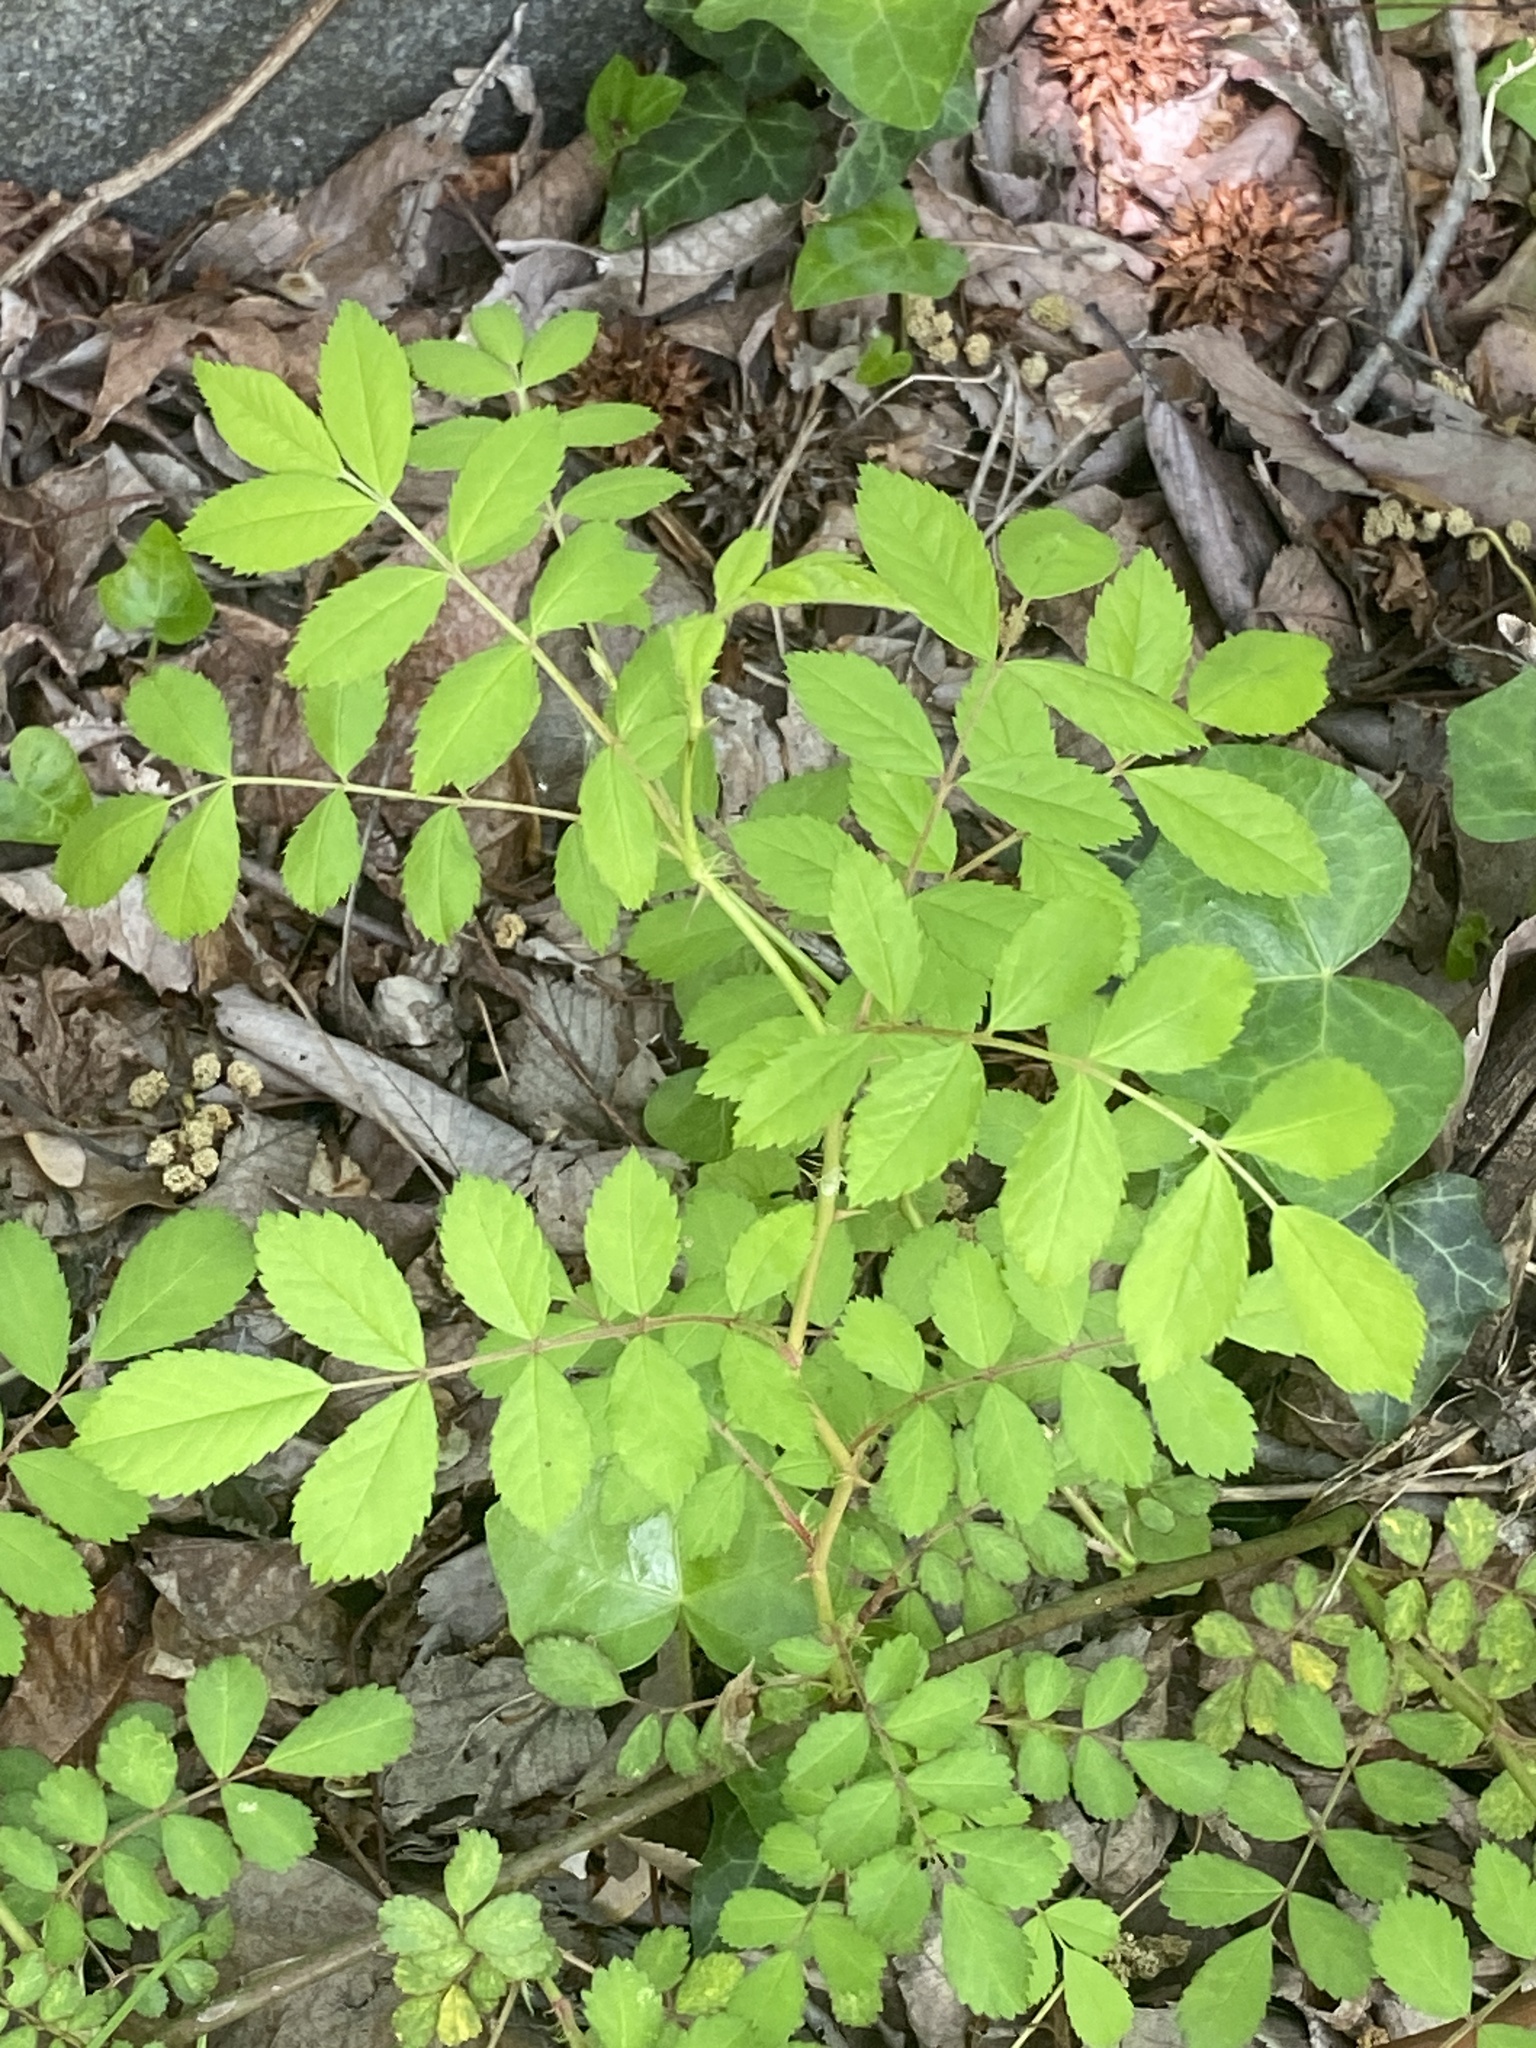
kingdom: Plantae
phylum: Tracheophyta
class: Magnoliopsida
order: Rosales
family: Rosaceae
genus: Rosa
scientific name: Rosa multiflora
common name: Multiflora rose
